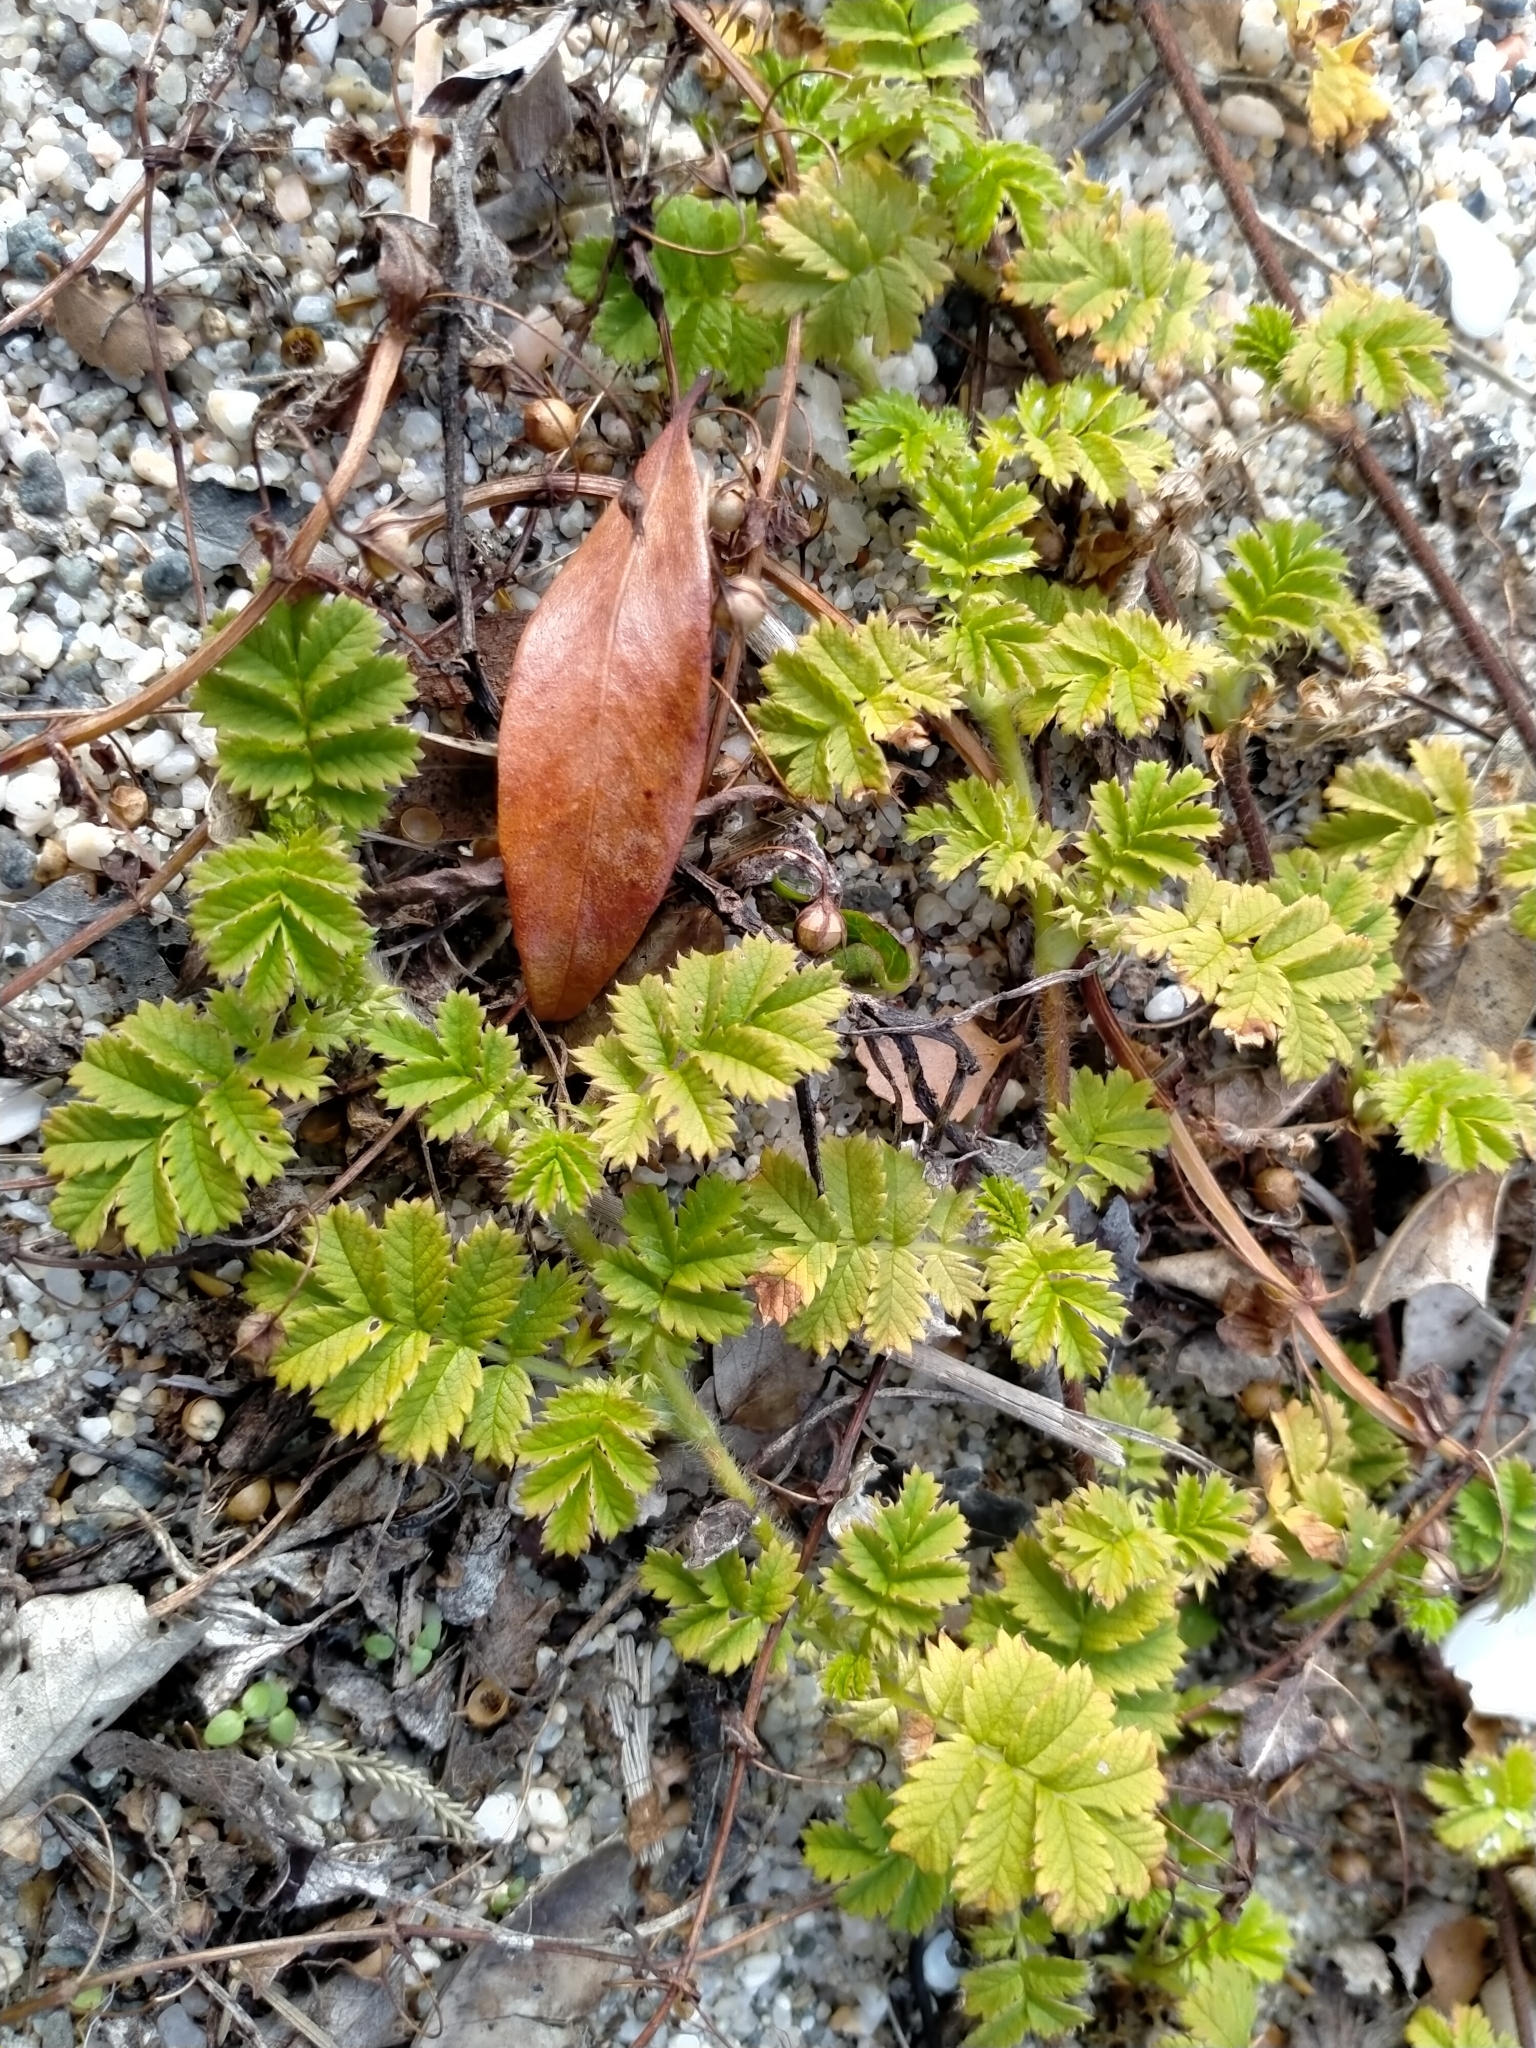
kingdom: Plantae
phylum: Tracheophyta
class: Magnoliopsida
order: Rosales
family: Rosaceae
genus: Acaena
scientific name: Acaena anserinifolia
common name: Bronze pirri-pirri-bur
